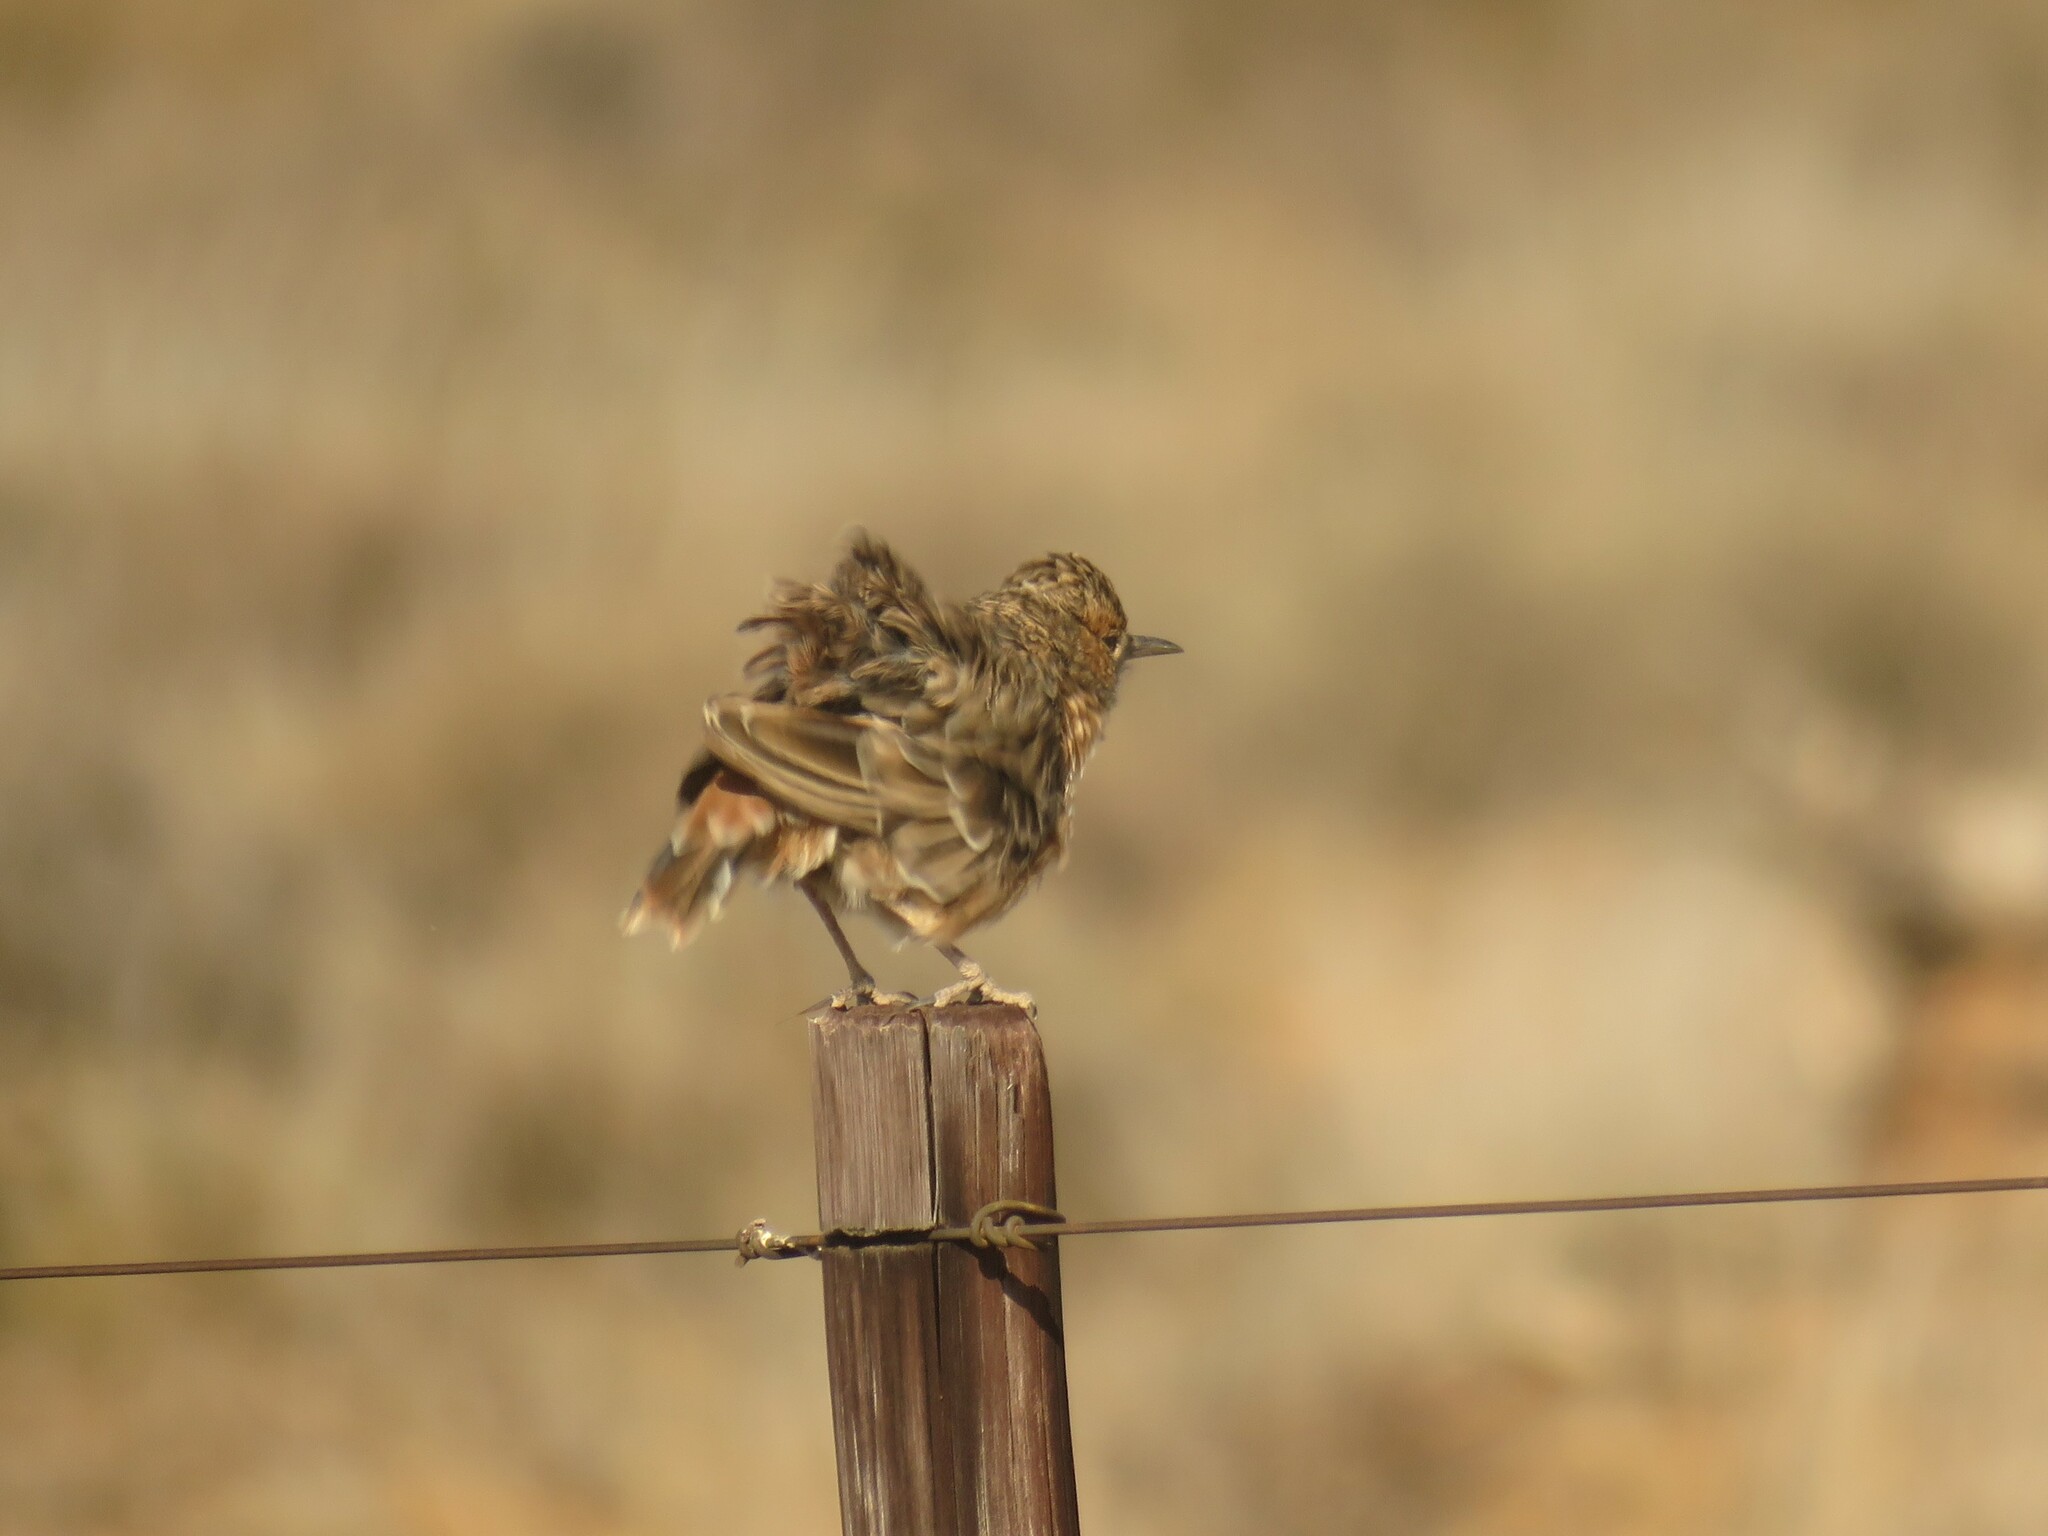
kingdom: Animalia
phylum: Chordata
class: Aves
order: Passeriformes
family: Alaudidae
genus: Chersomanes
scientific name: Chersomanes albofasciata
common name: Spike-heeled lark
